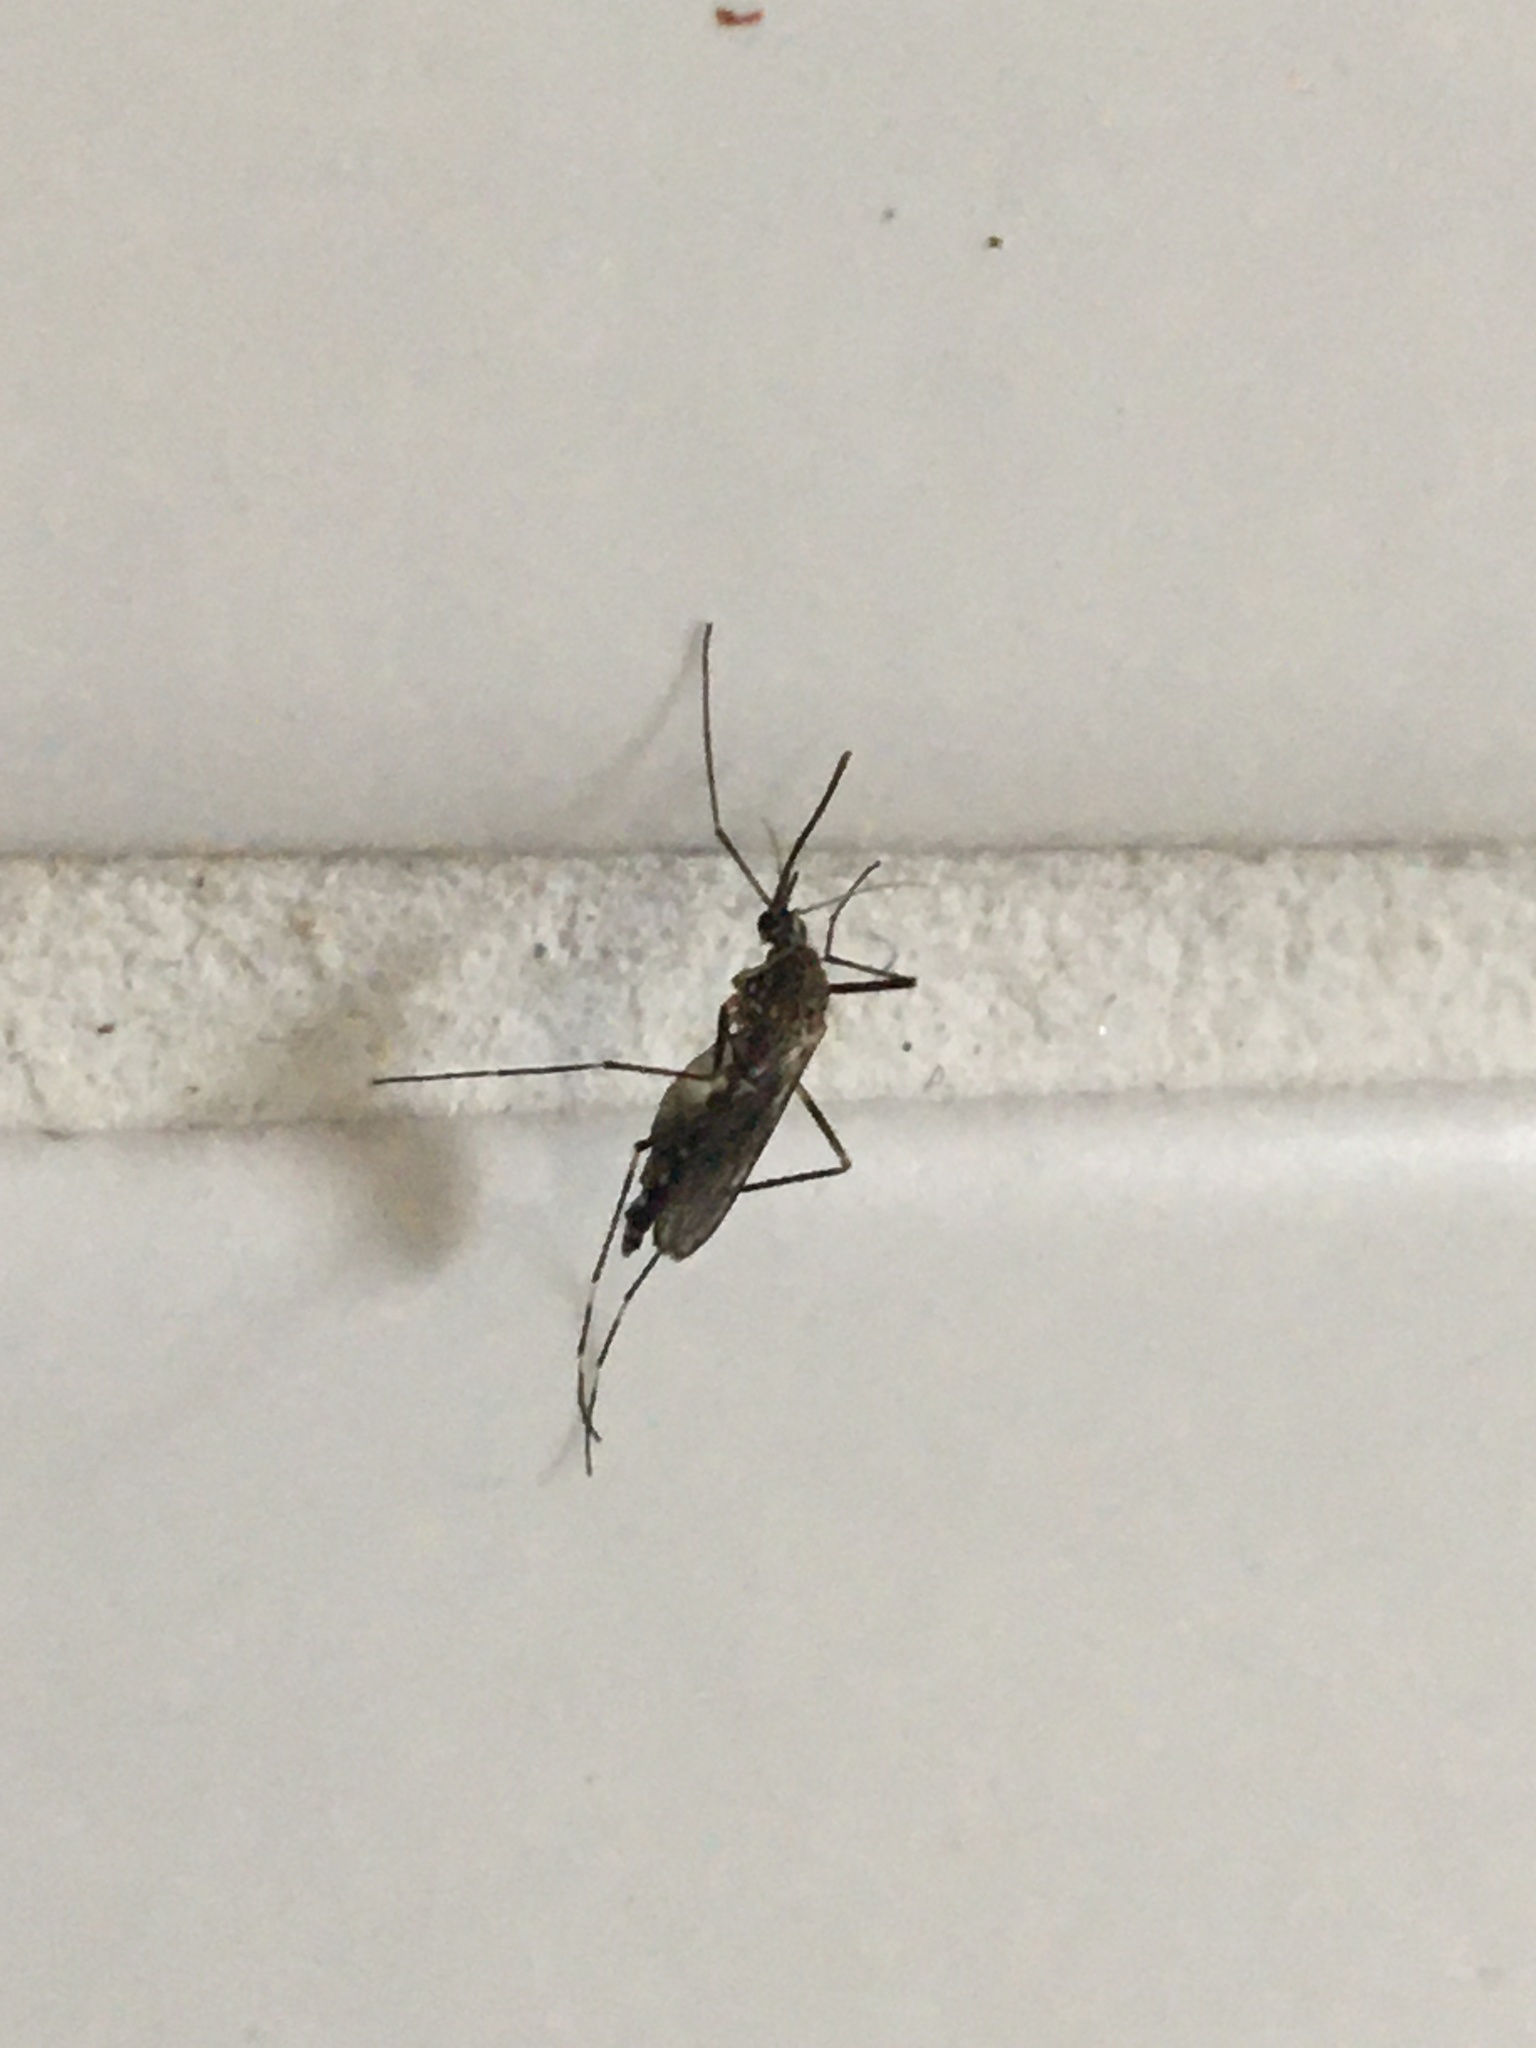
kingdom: Animalia
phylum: Arthropoda
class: Insecta
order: Diptera
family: Culicidae
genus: Aedes
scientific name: Aedes japonicus
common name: Asian bush mosquito
